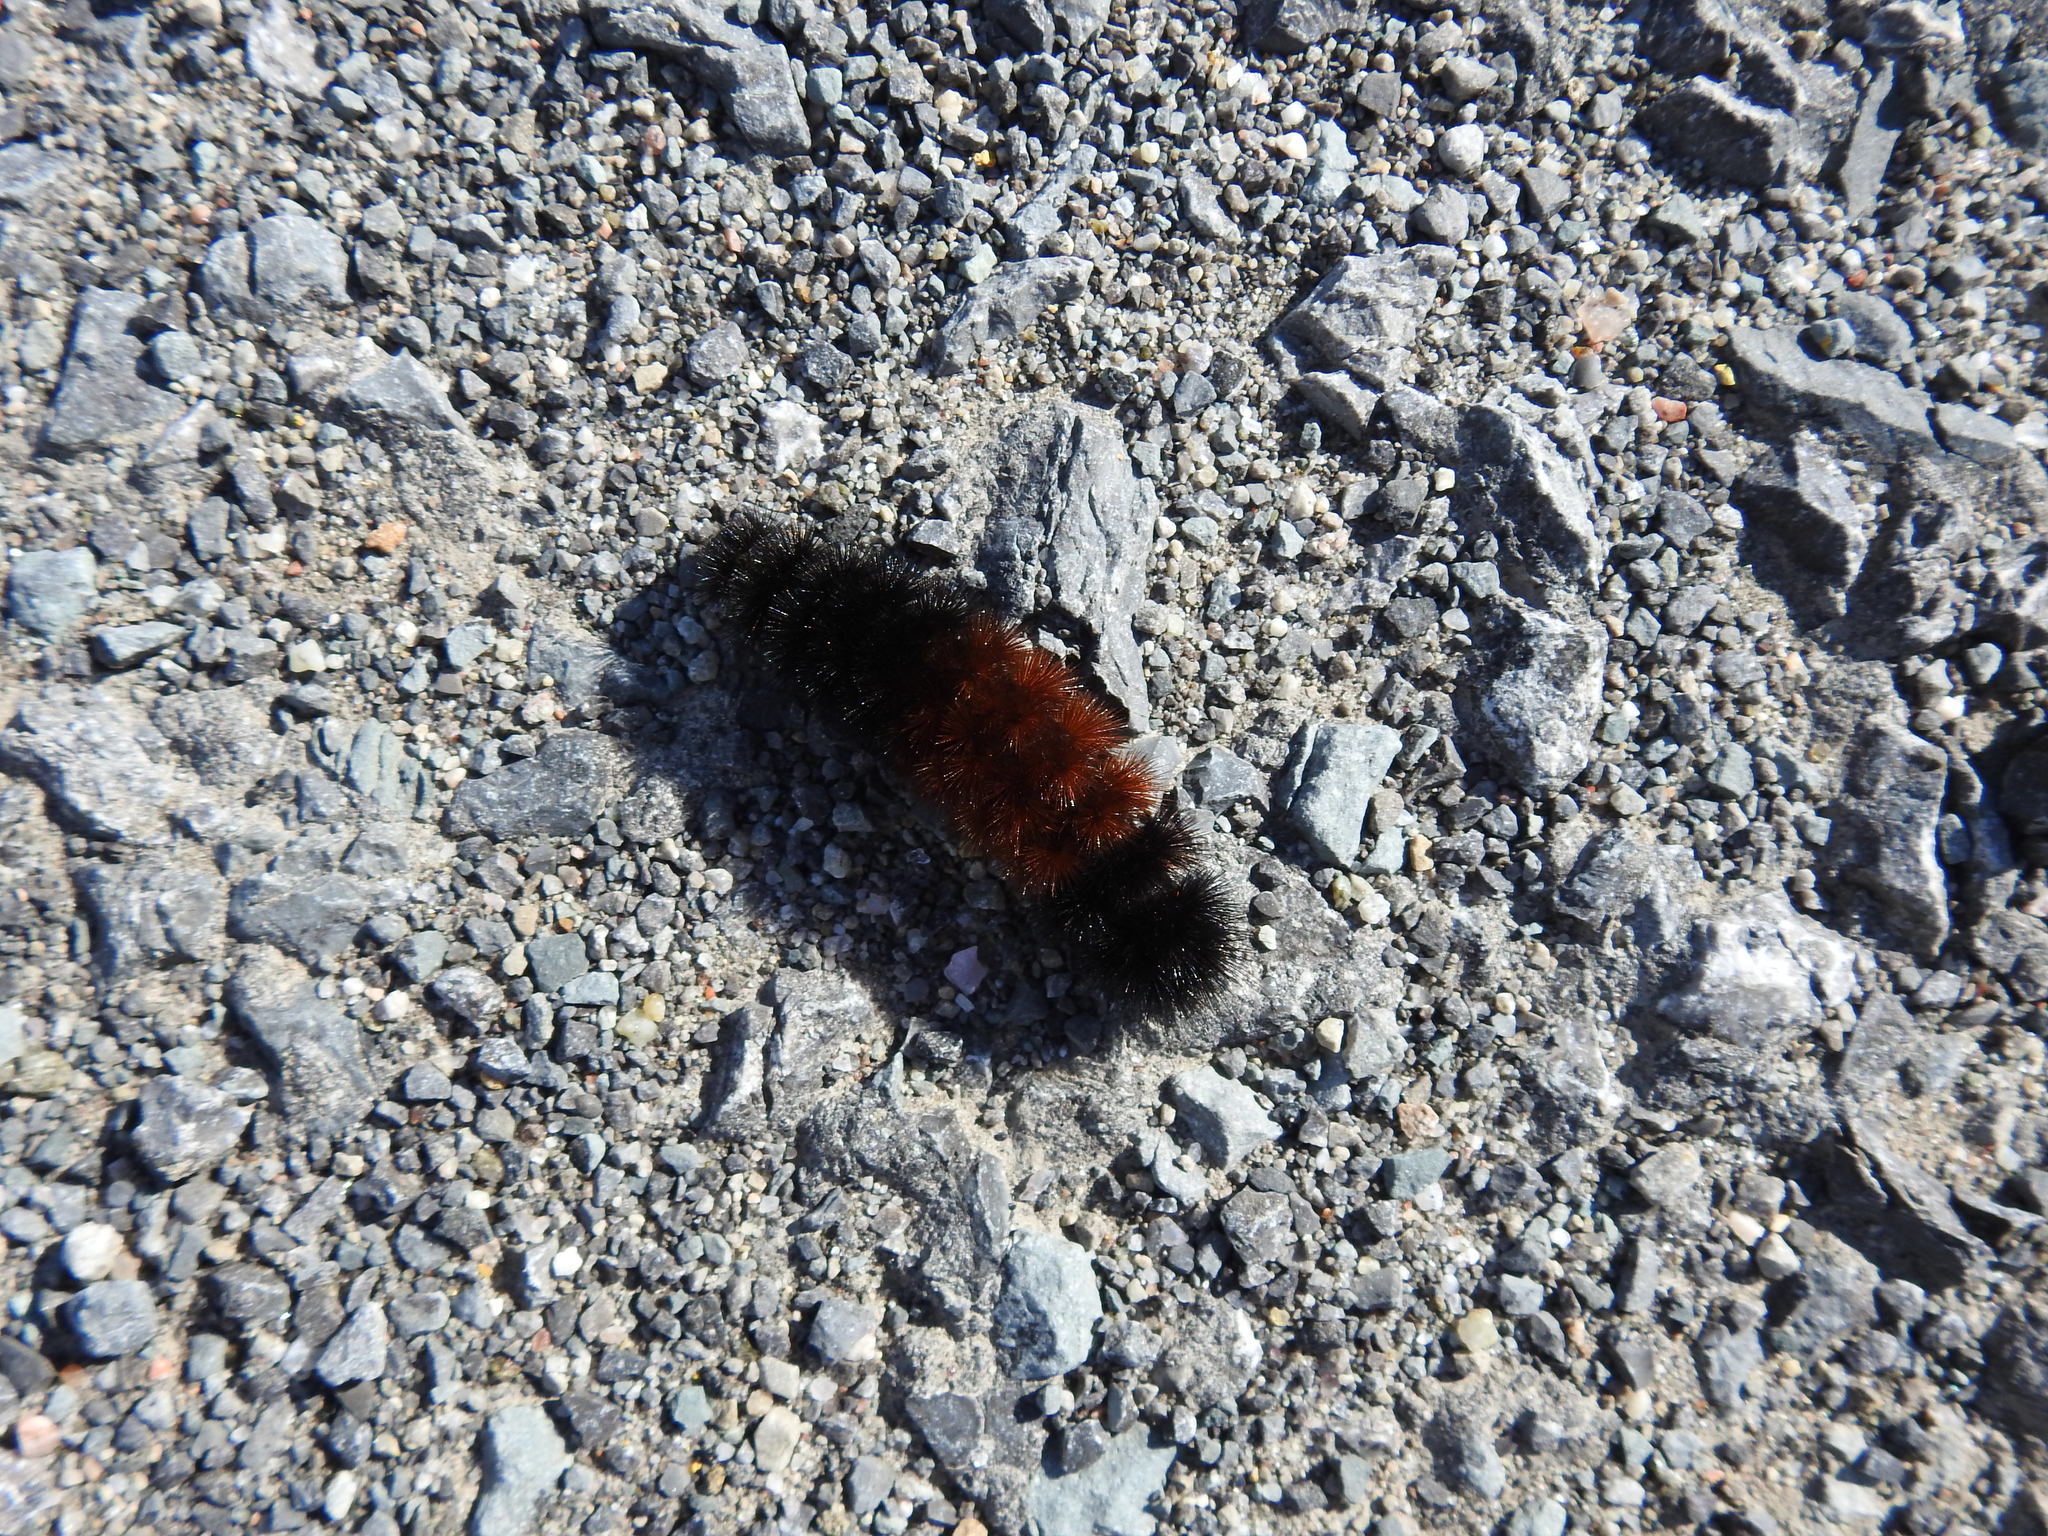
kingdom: Animalia
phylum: Arthropoda
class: Insecta
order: Lepidoptera
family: Erebidae
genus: Pyrrharctia
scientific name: Pyrrharctia isabella
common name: Isabella tiger moth
